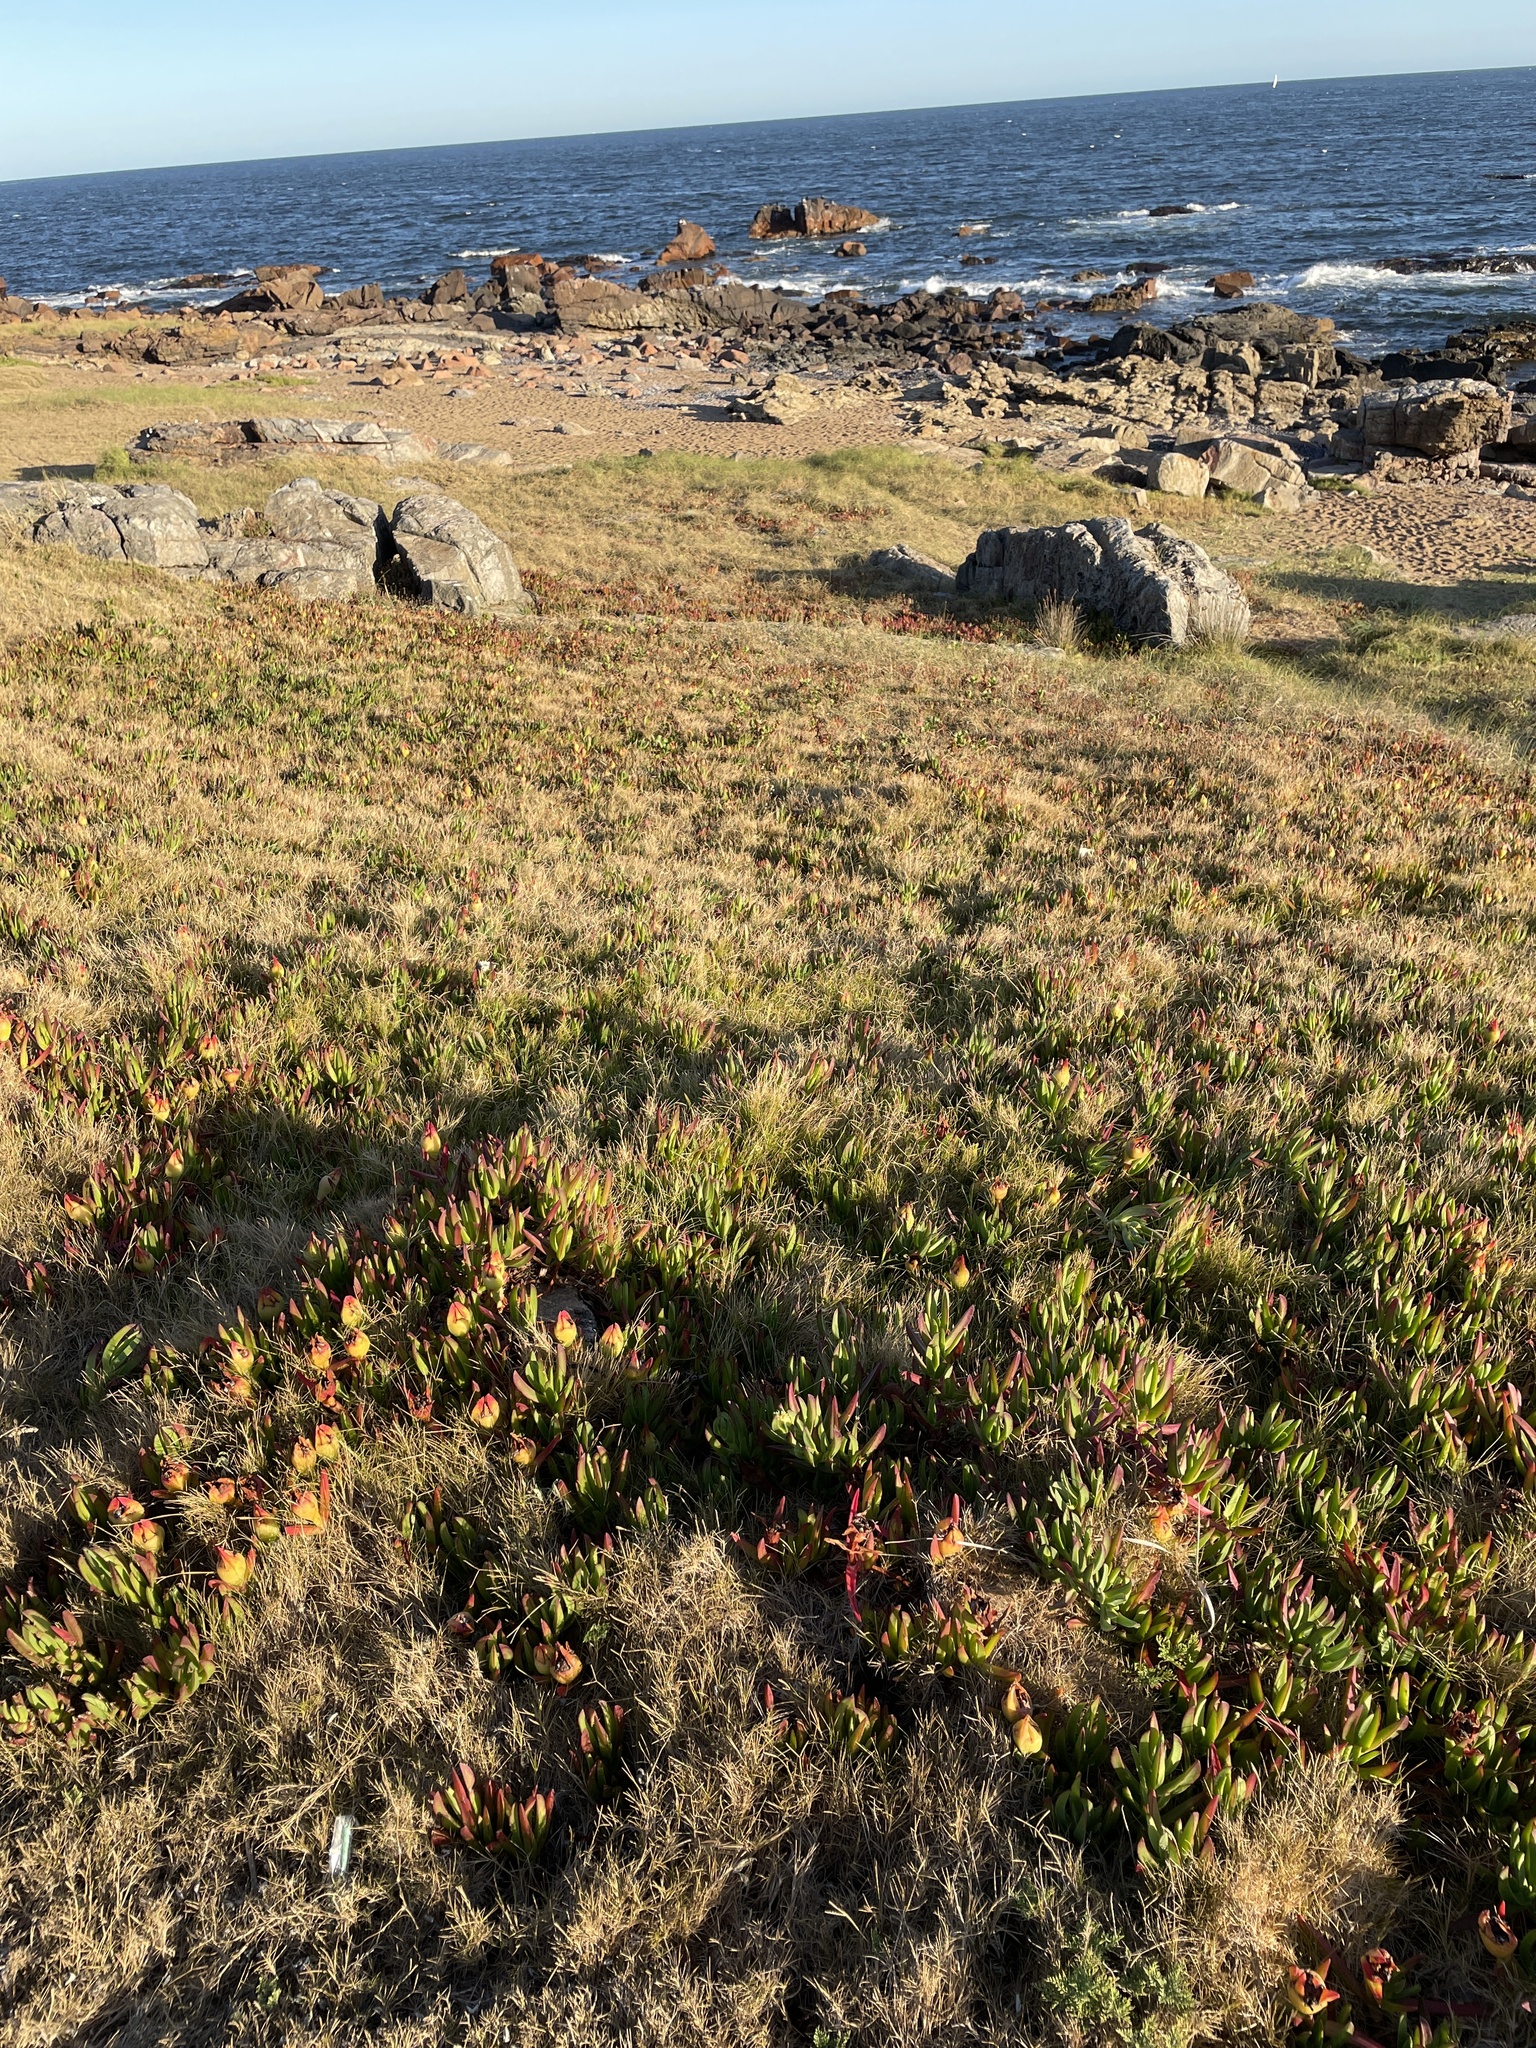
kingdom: Plantae
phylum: Tracheophyta
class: Magnoliopsida
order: Caryophyllales
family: Aizoaceae
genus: Carpobrotus
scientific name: Carpobrotus edulis
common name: Hottentot-fig
